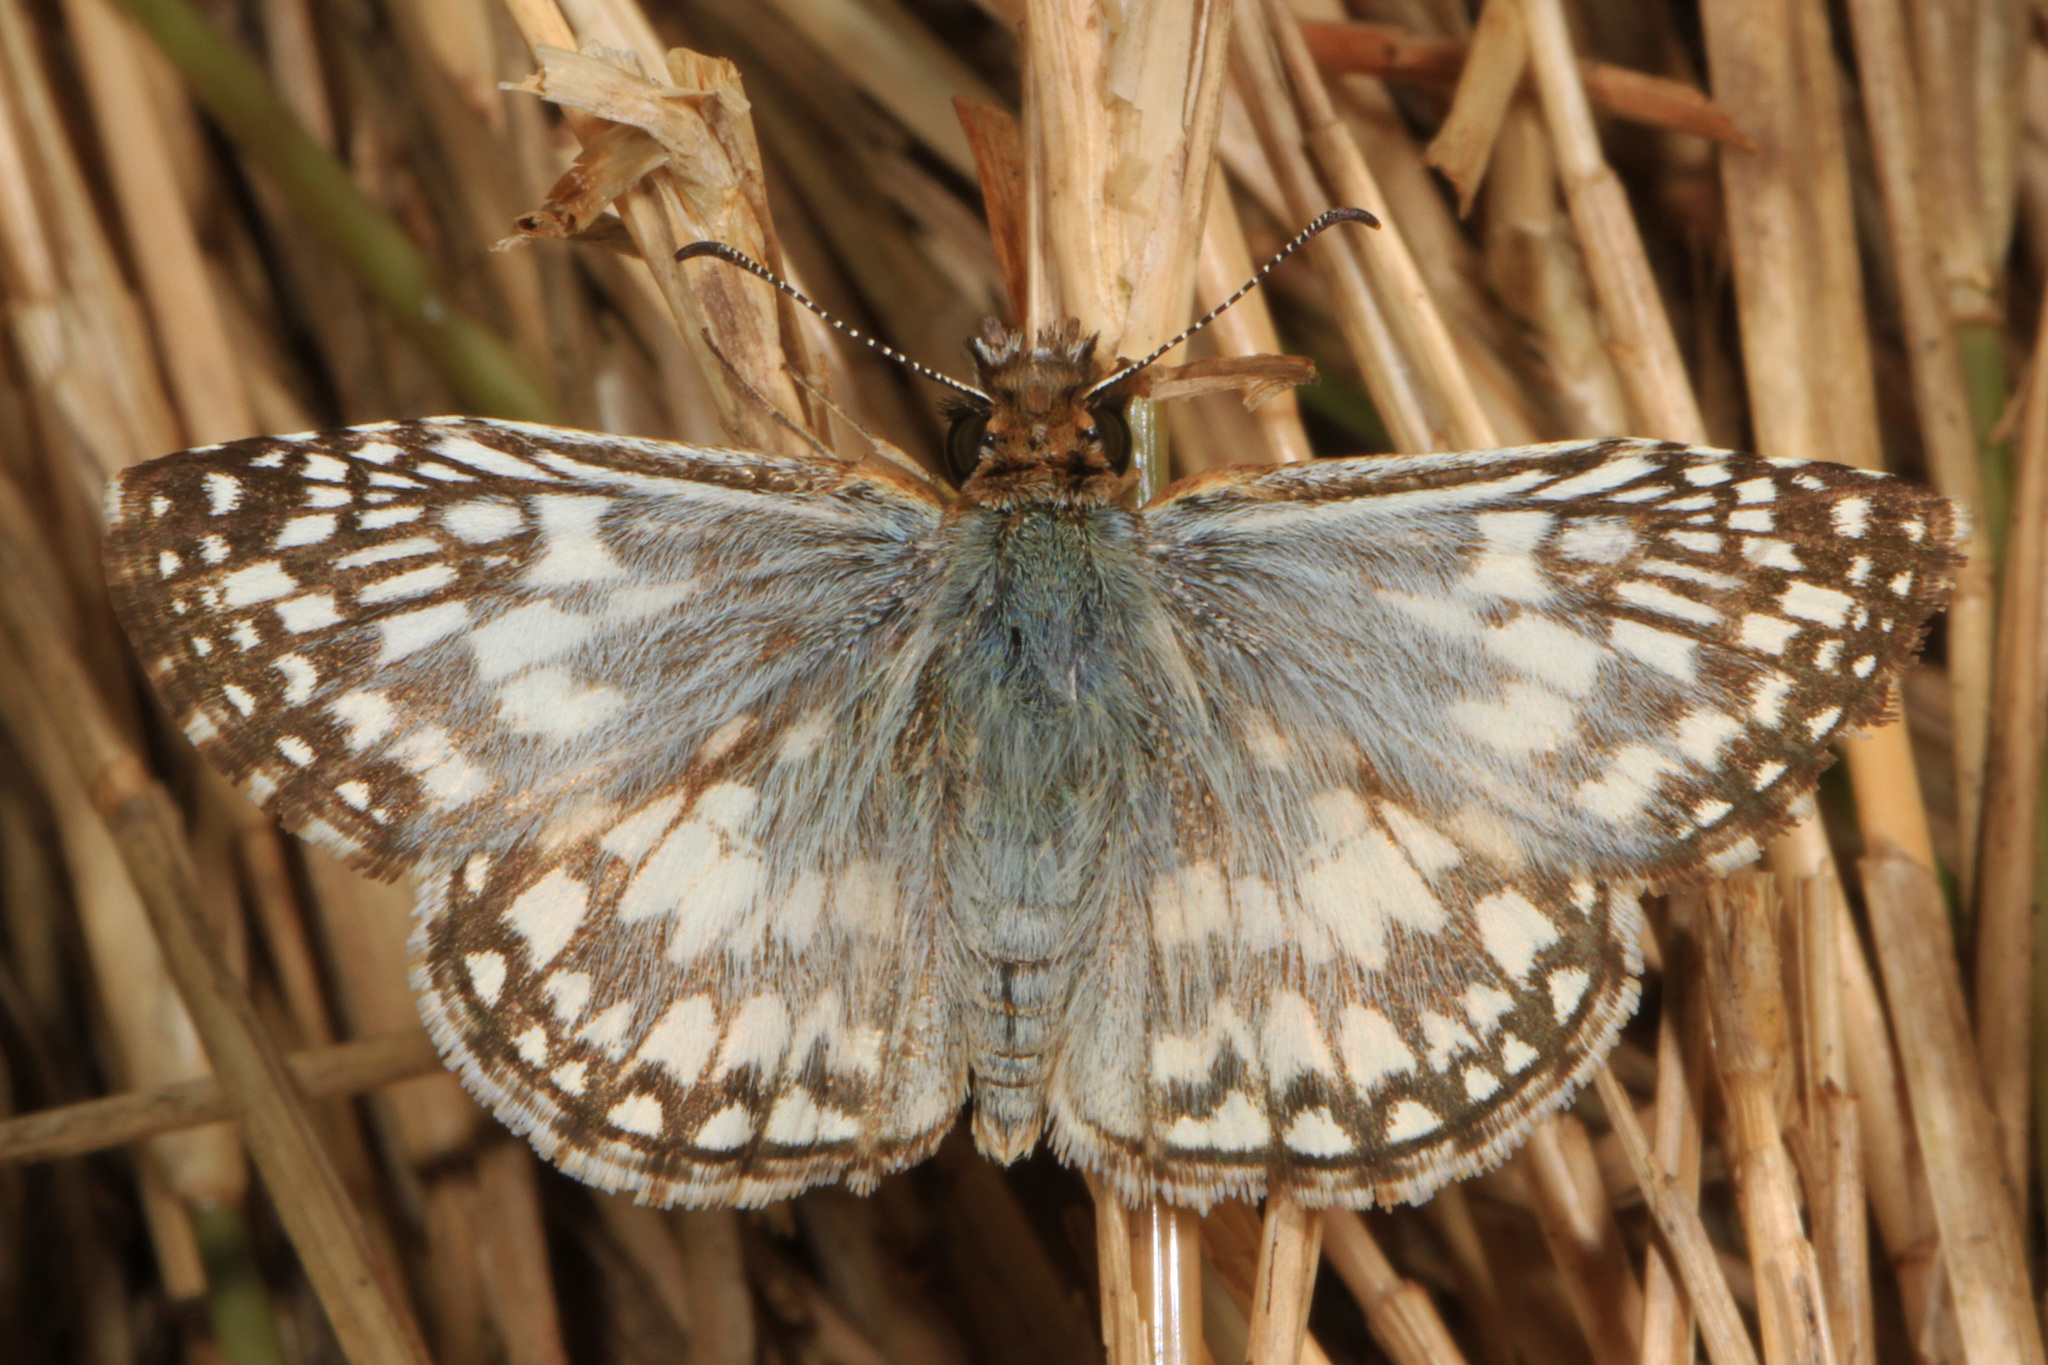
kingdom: Animalia
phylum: Arthropoda
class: Insecta
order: Lepidoptera
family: Hesperiidae
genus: Pyrgus
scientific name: Pyrgus oileus
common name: Tropical checkered-skipper
